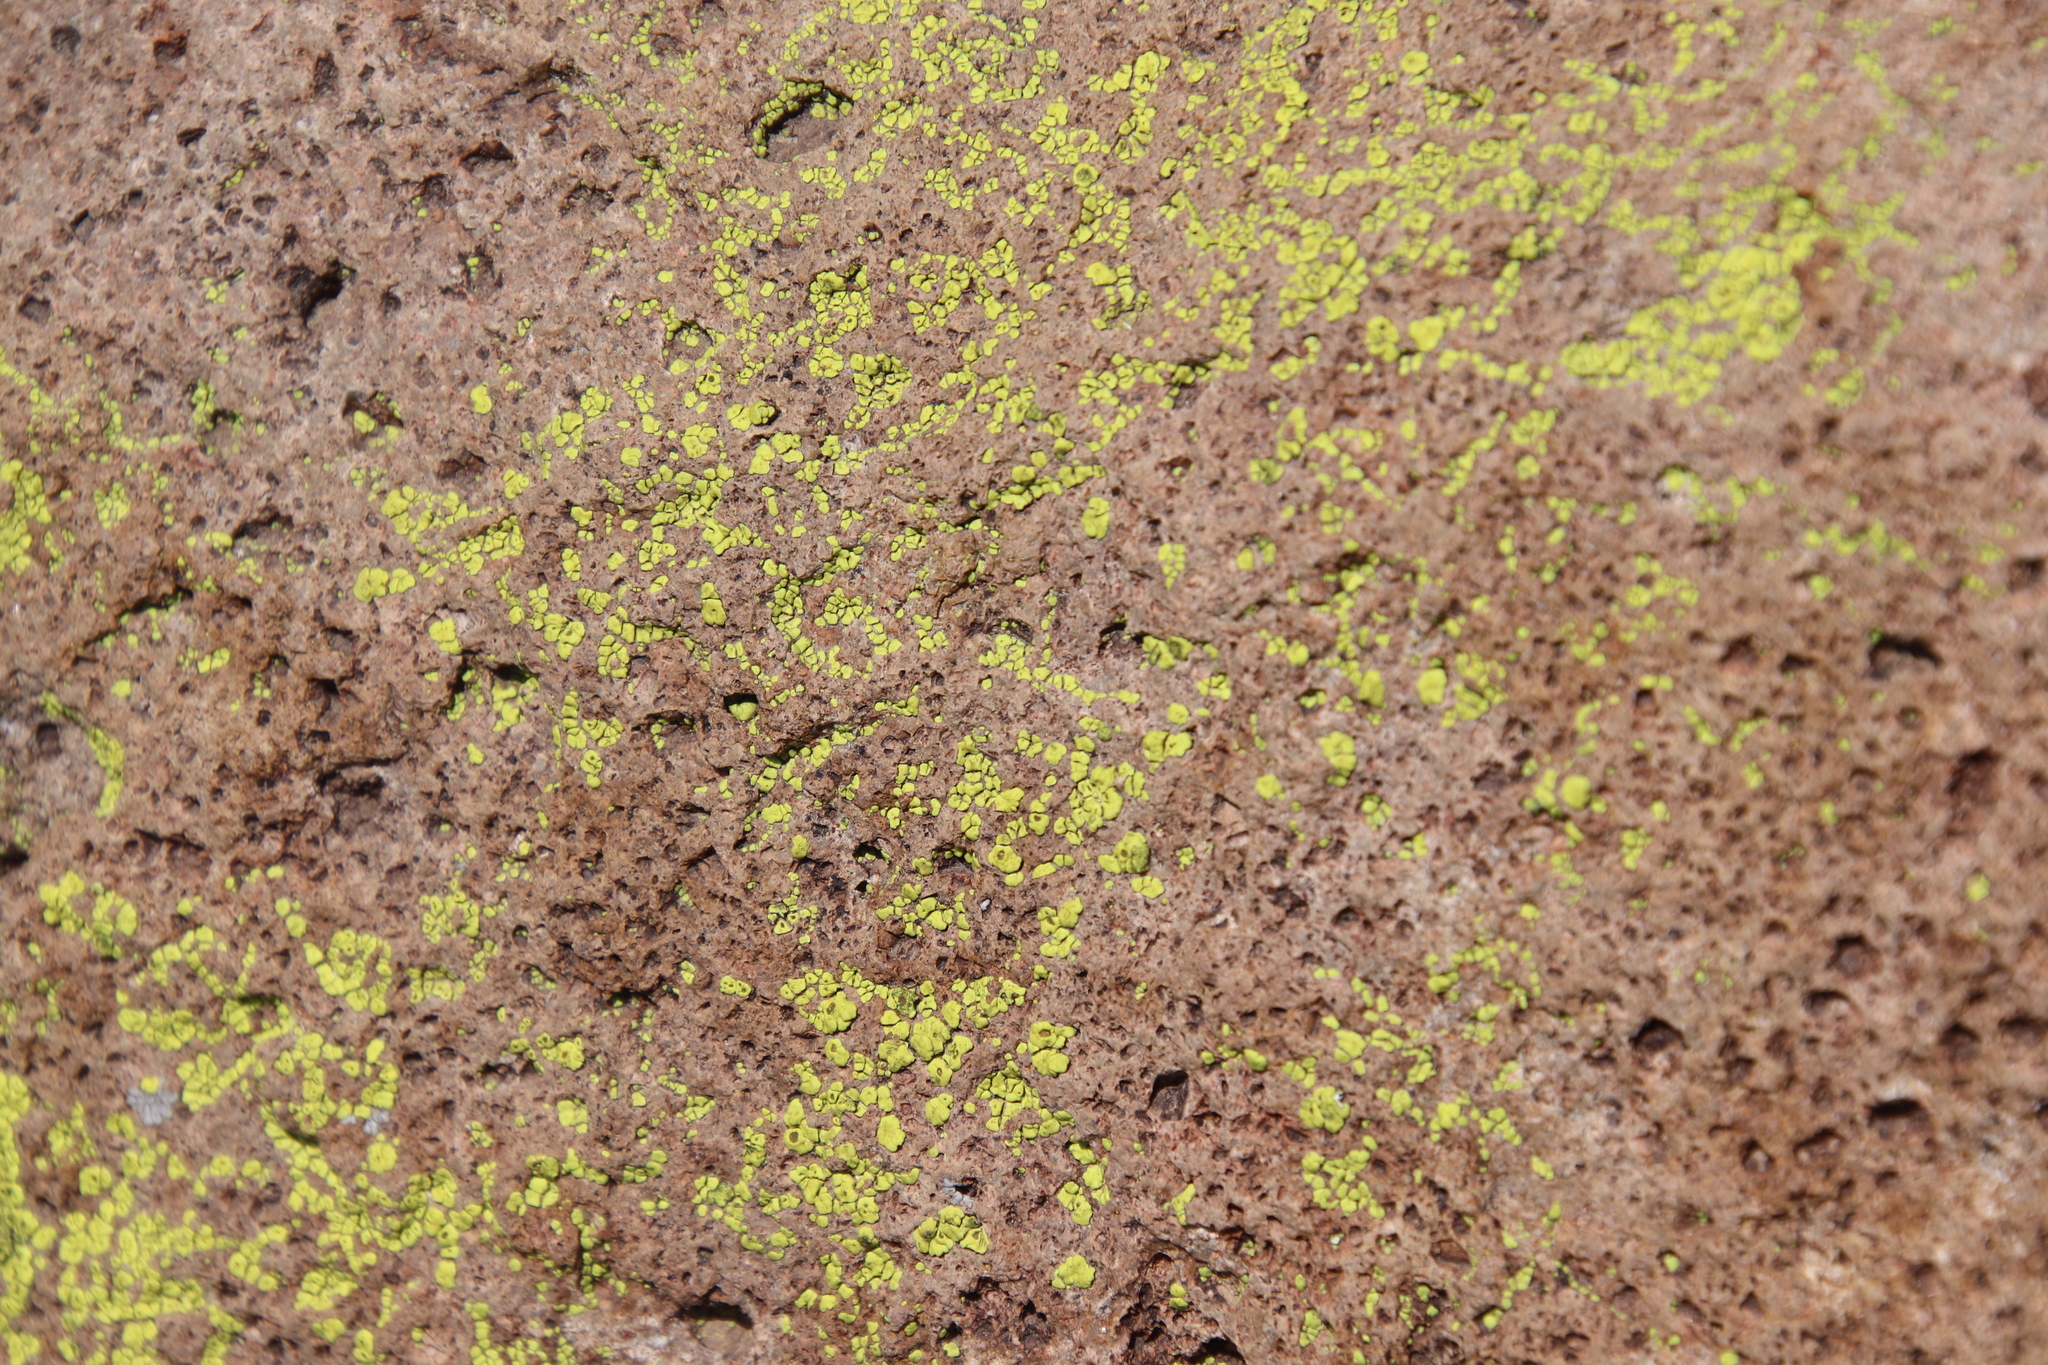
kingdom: Fungi
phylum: Ascomycota
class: Lecanoromycetes
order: Acarosporales
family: Acarosporaceae
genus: Acarospora
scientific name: Acarospora socialis
